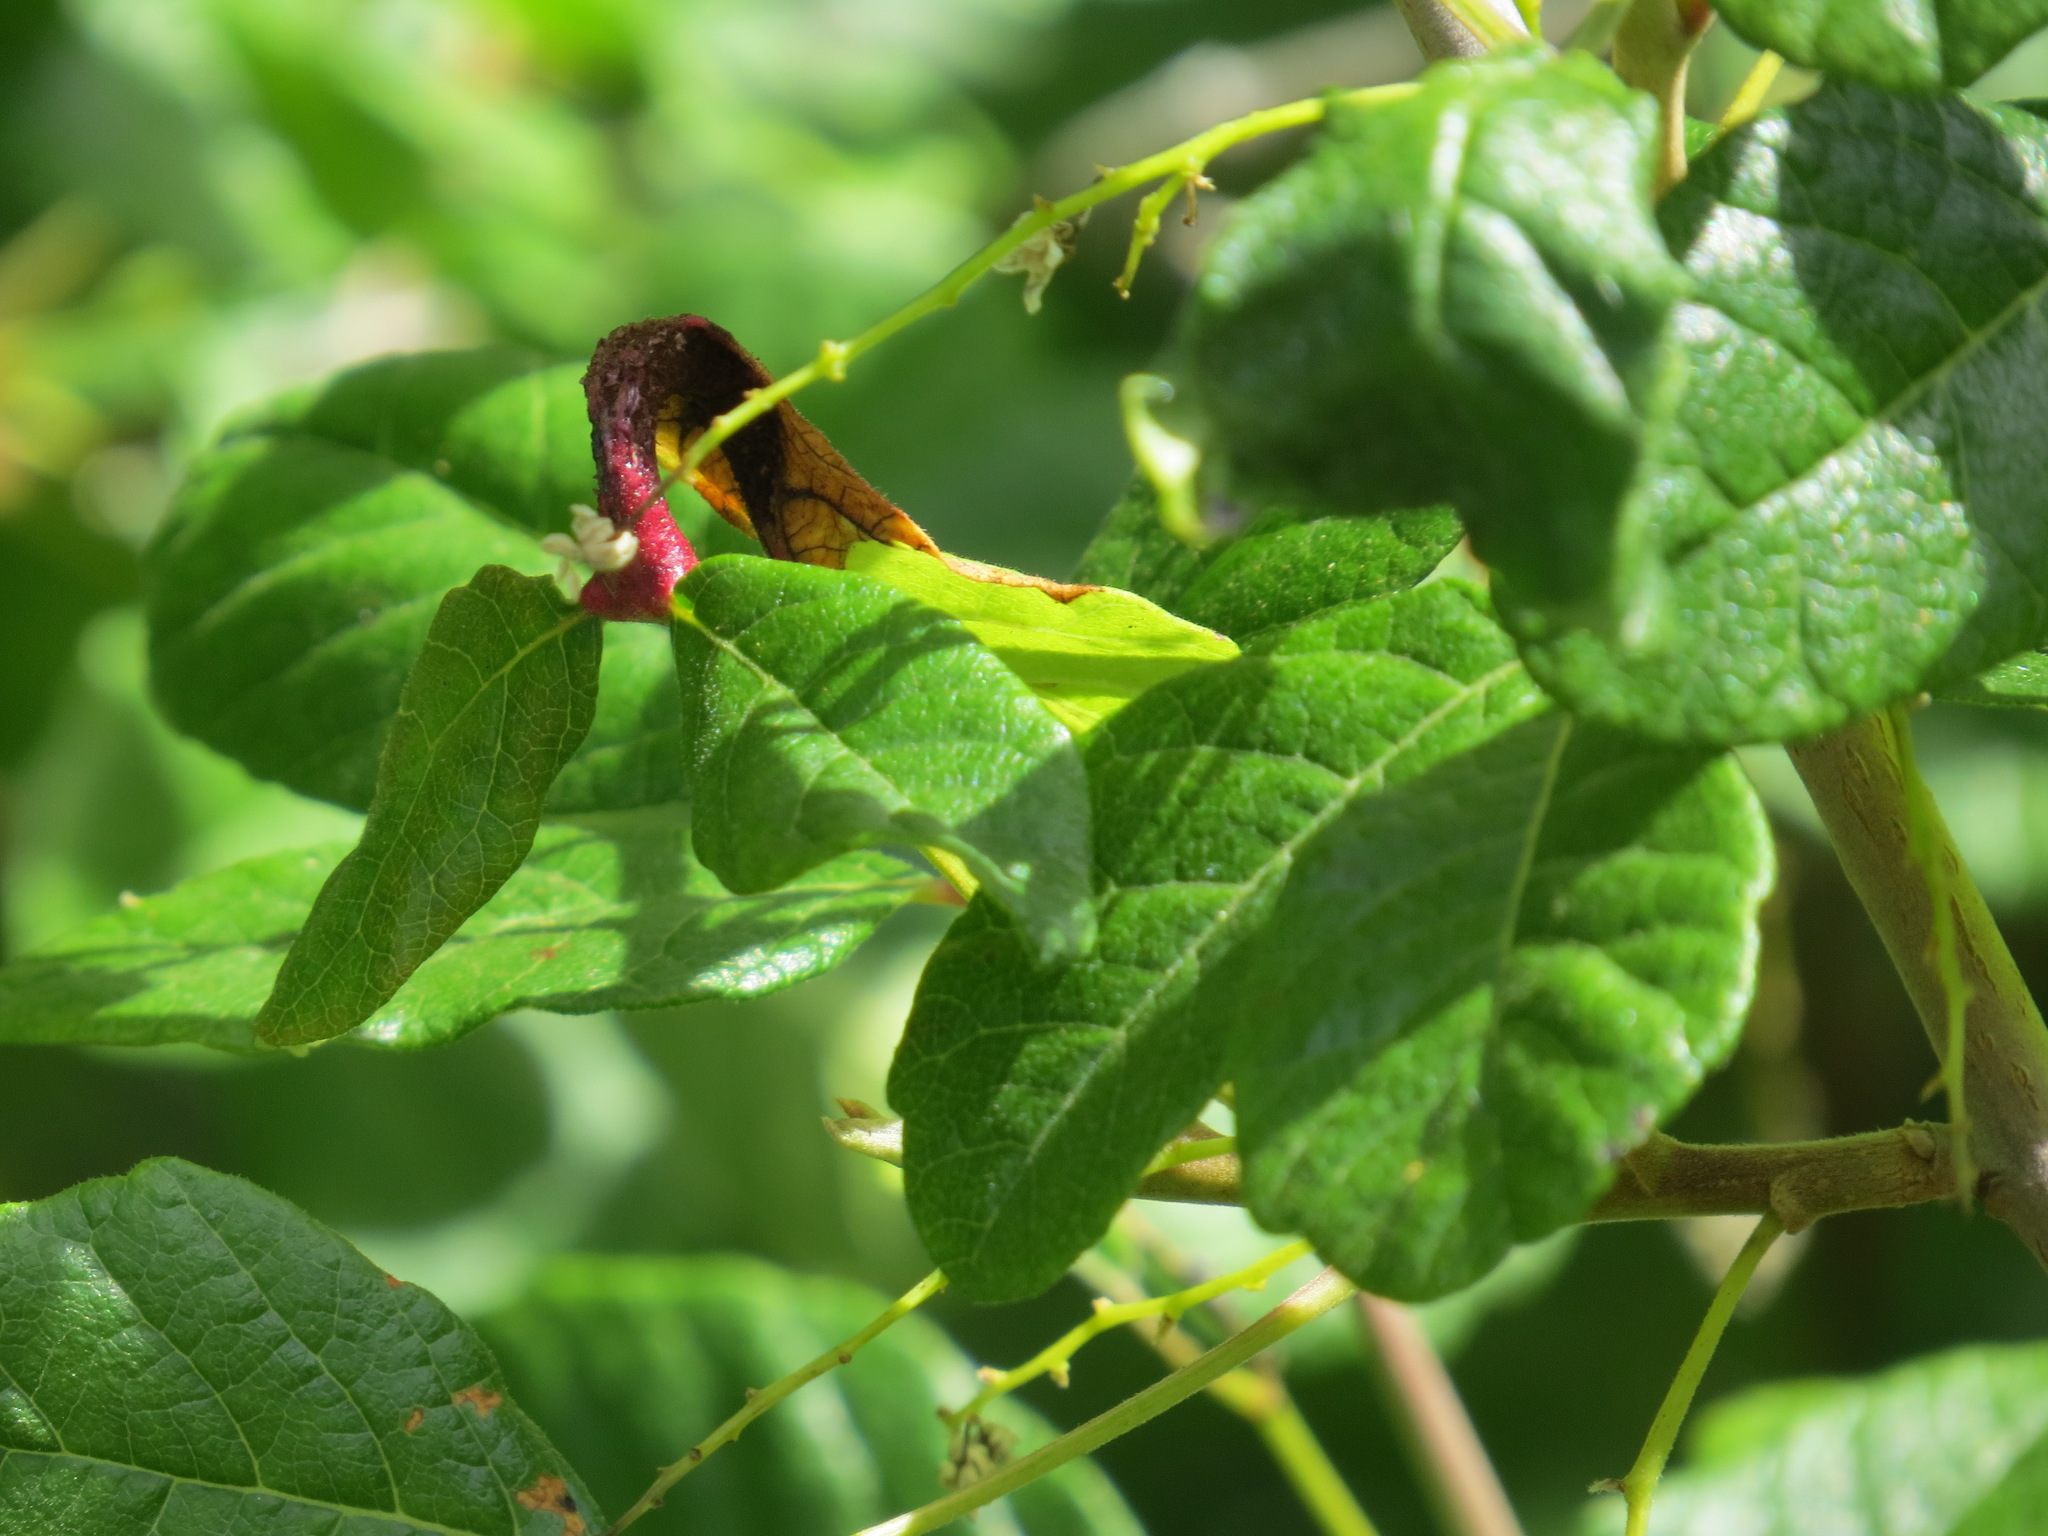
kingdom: Fungi
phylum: Basidiomycota
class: Pucciniomycetes
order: Pucciniales
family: Pileolariaceae
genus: Pileolaria
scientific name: Pileolaria brevipes
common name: Poison ivy rust
